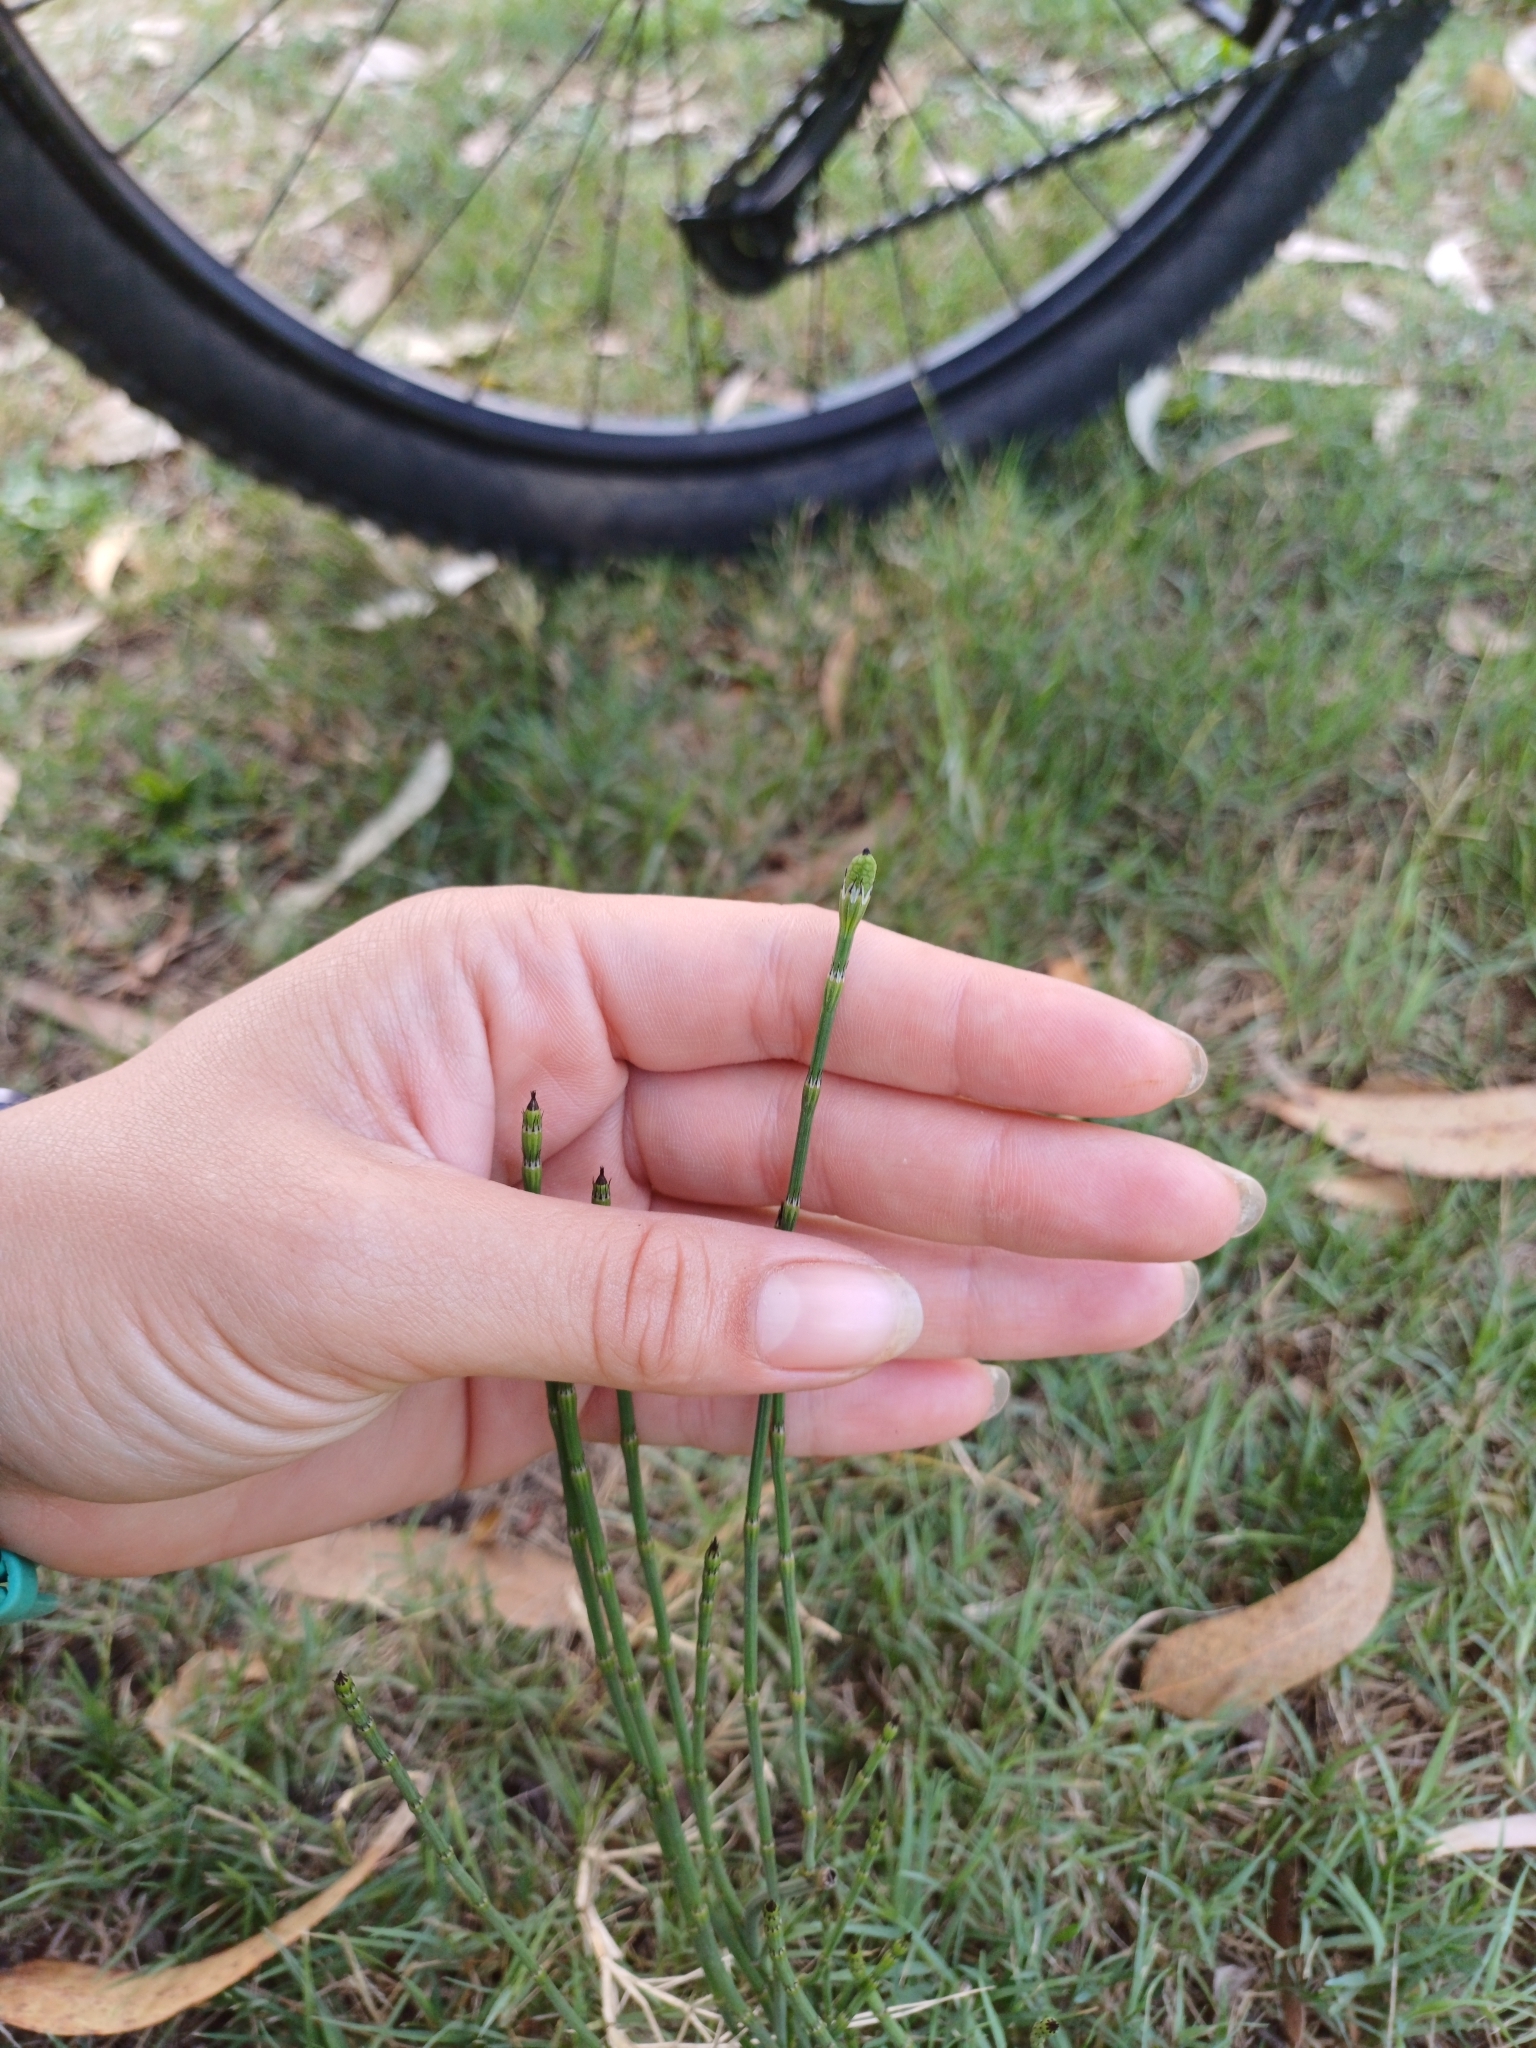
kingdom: Plantae
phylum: Tracheophyta
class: Polypodiopsida
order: Equisetales
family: Equisetaceae
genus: Equisetum
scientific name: Equisetum giganteum
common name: Giant horsetail
